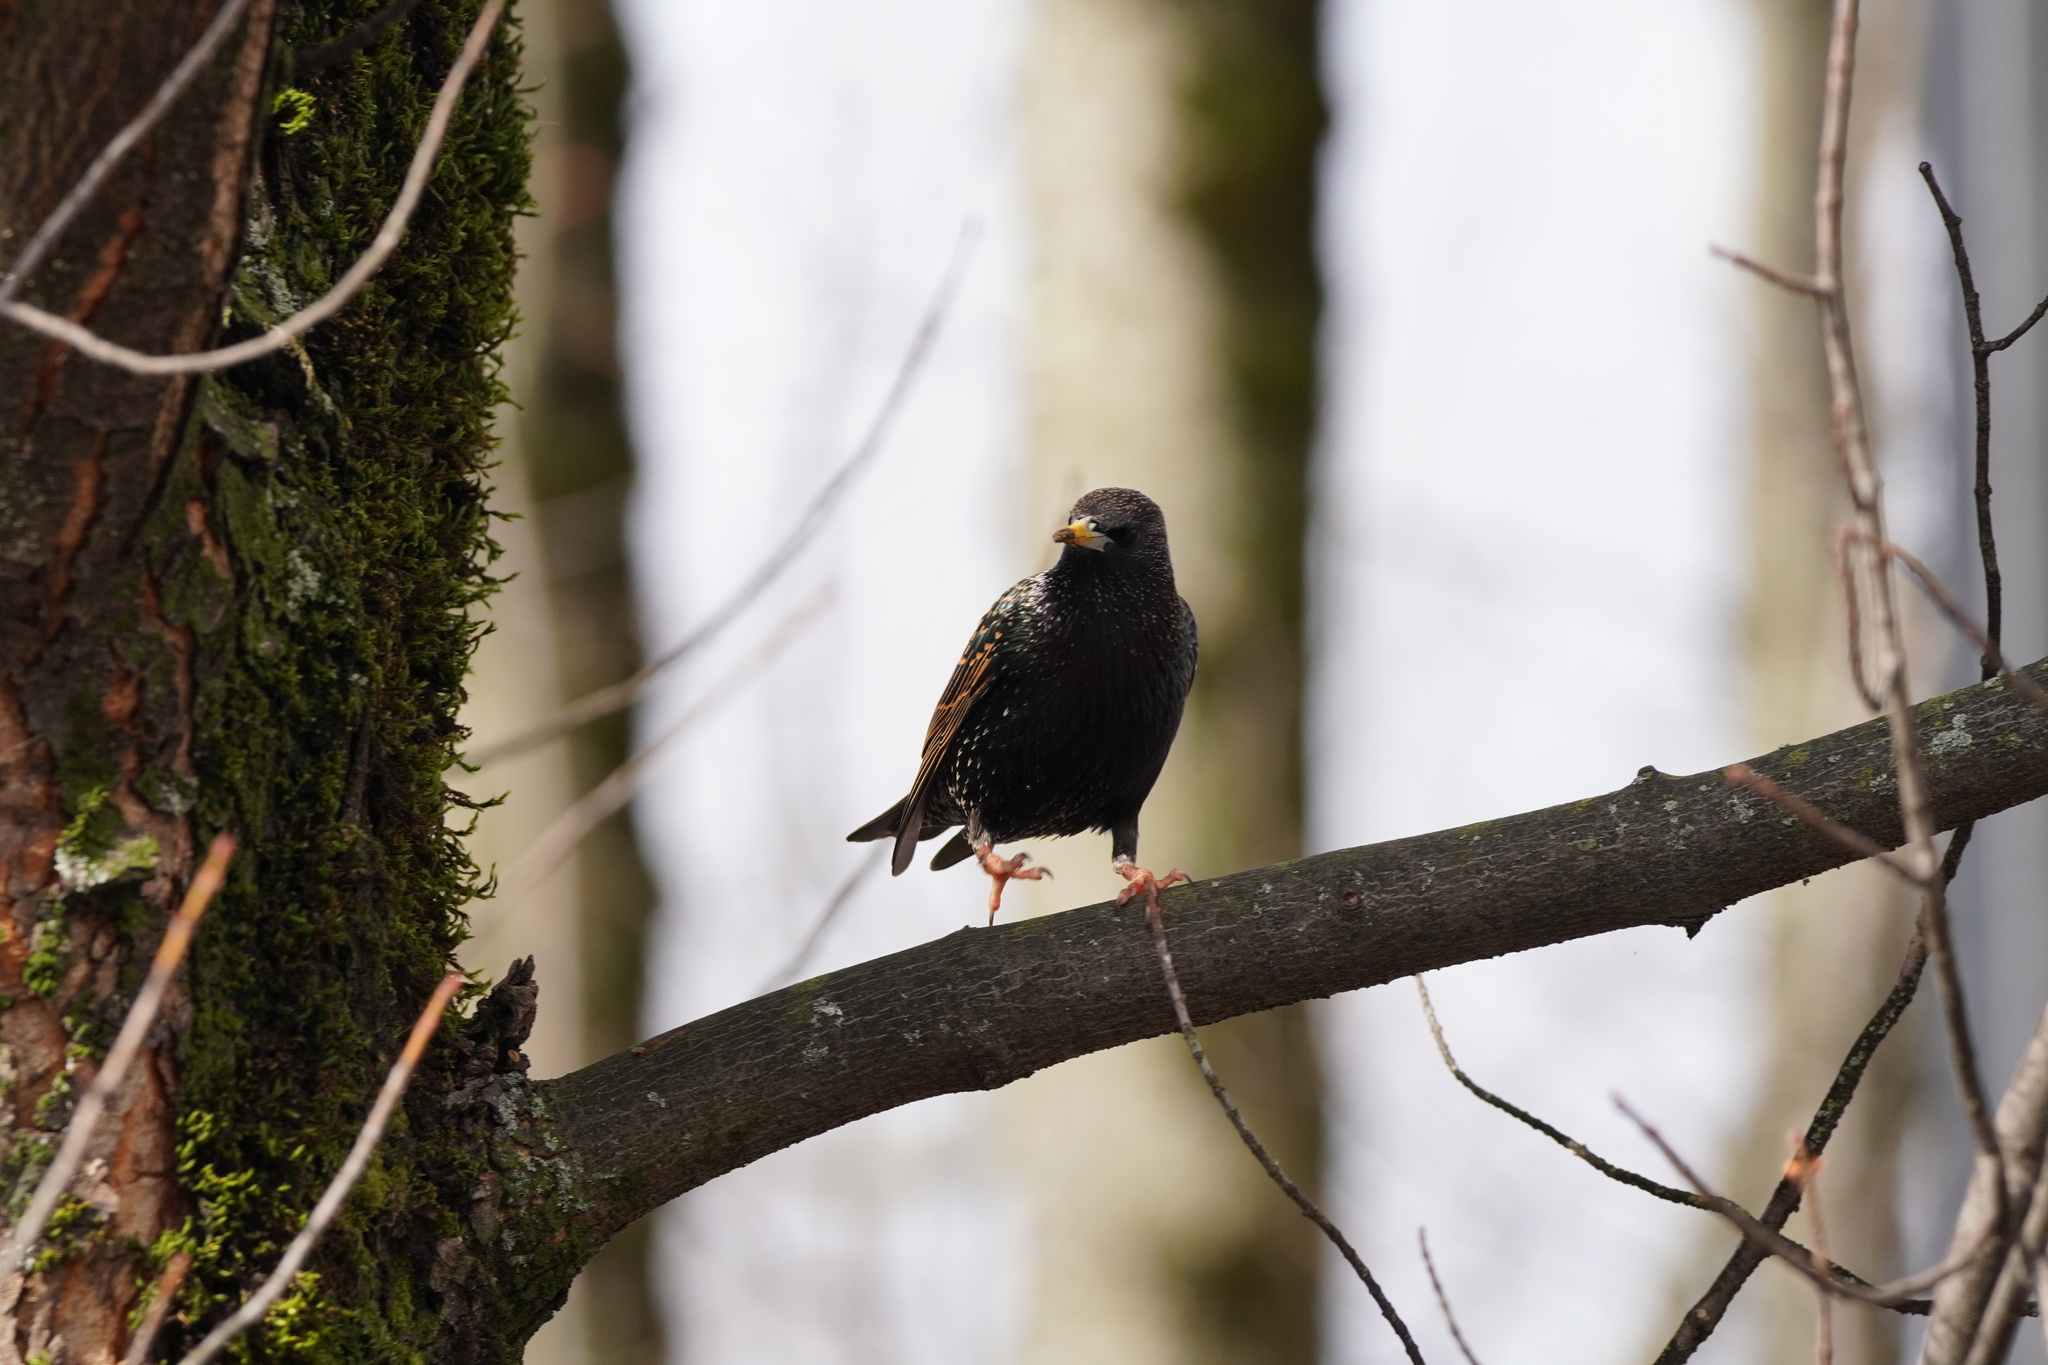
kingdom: Animalia
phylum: Chordata
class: Aves
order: Passeriformes
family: Sturnidae
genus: Sturnus
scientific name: Sturnus vulgaris
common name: Common starling
